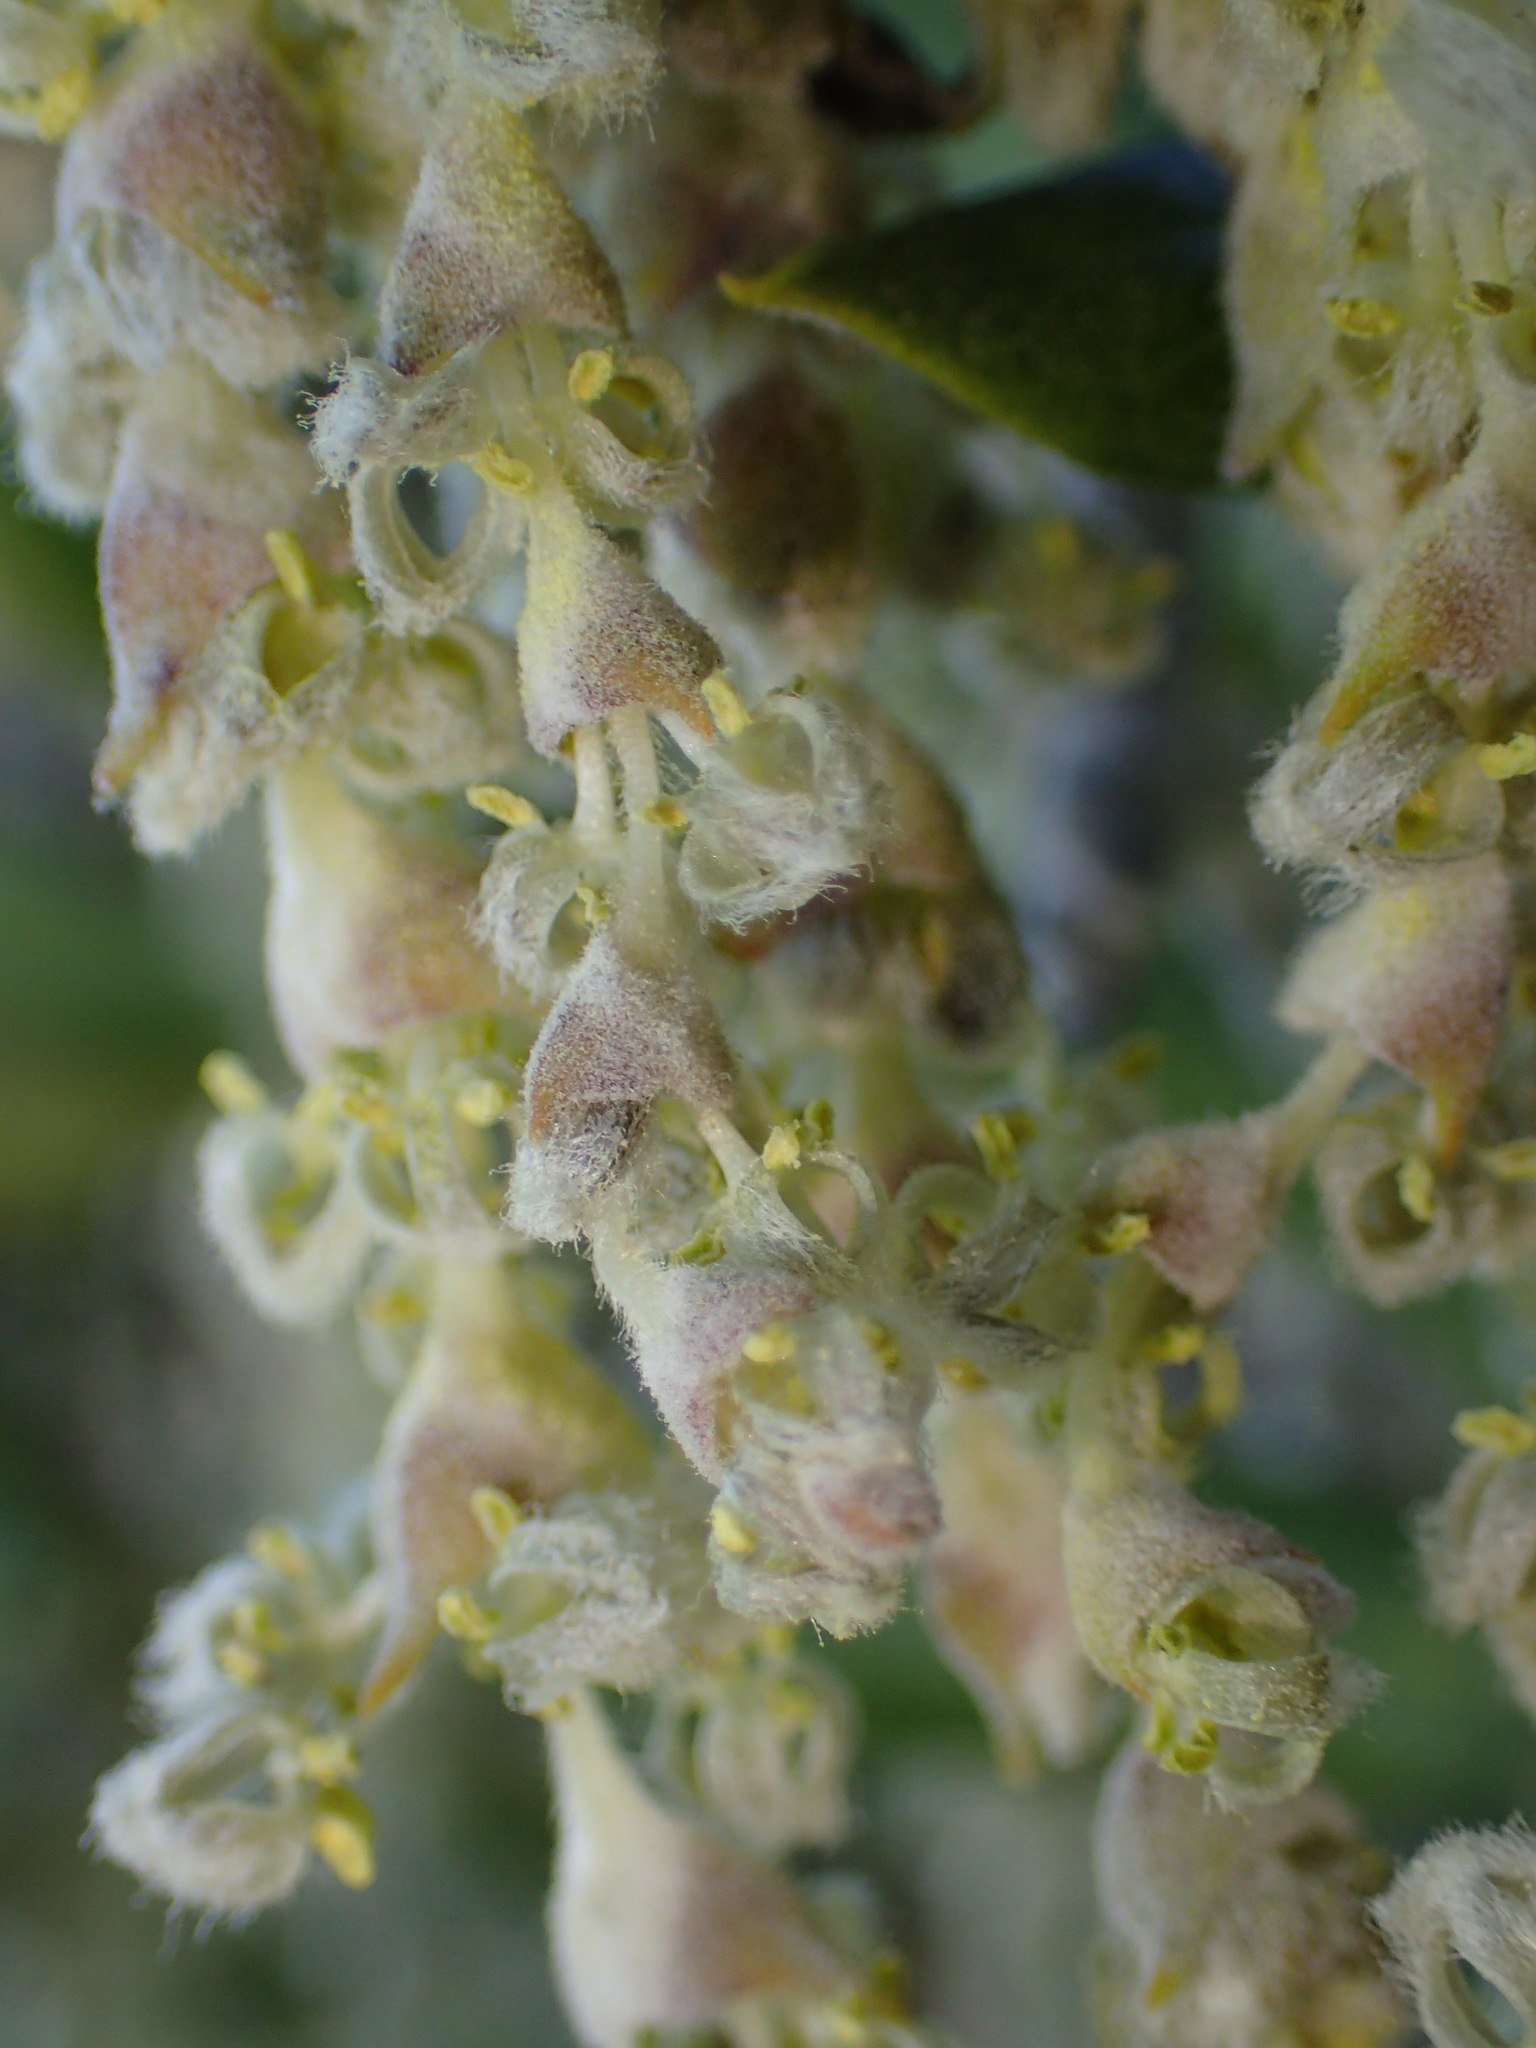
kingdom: Plantae
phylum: Tracheophyta
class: Magnoliopsida
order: Garryales
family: Garryaceae
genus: Garrya
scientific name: Garrya veatchii
